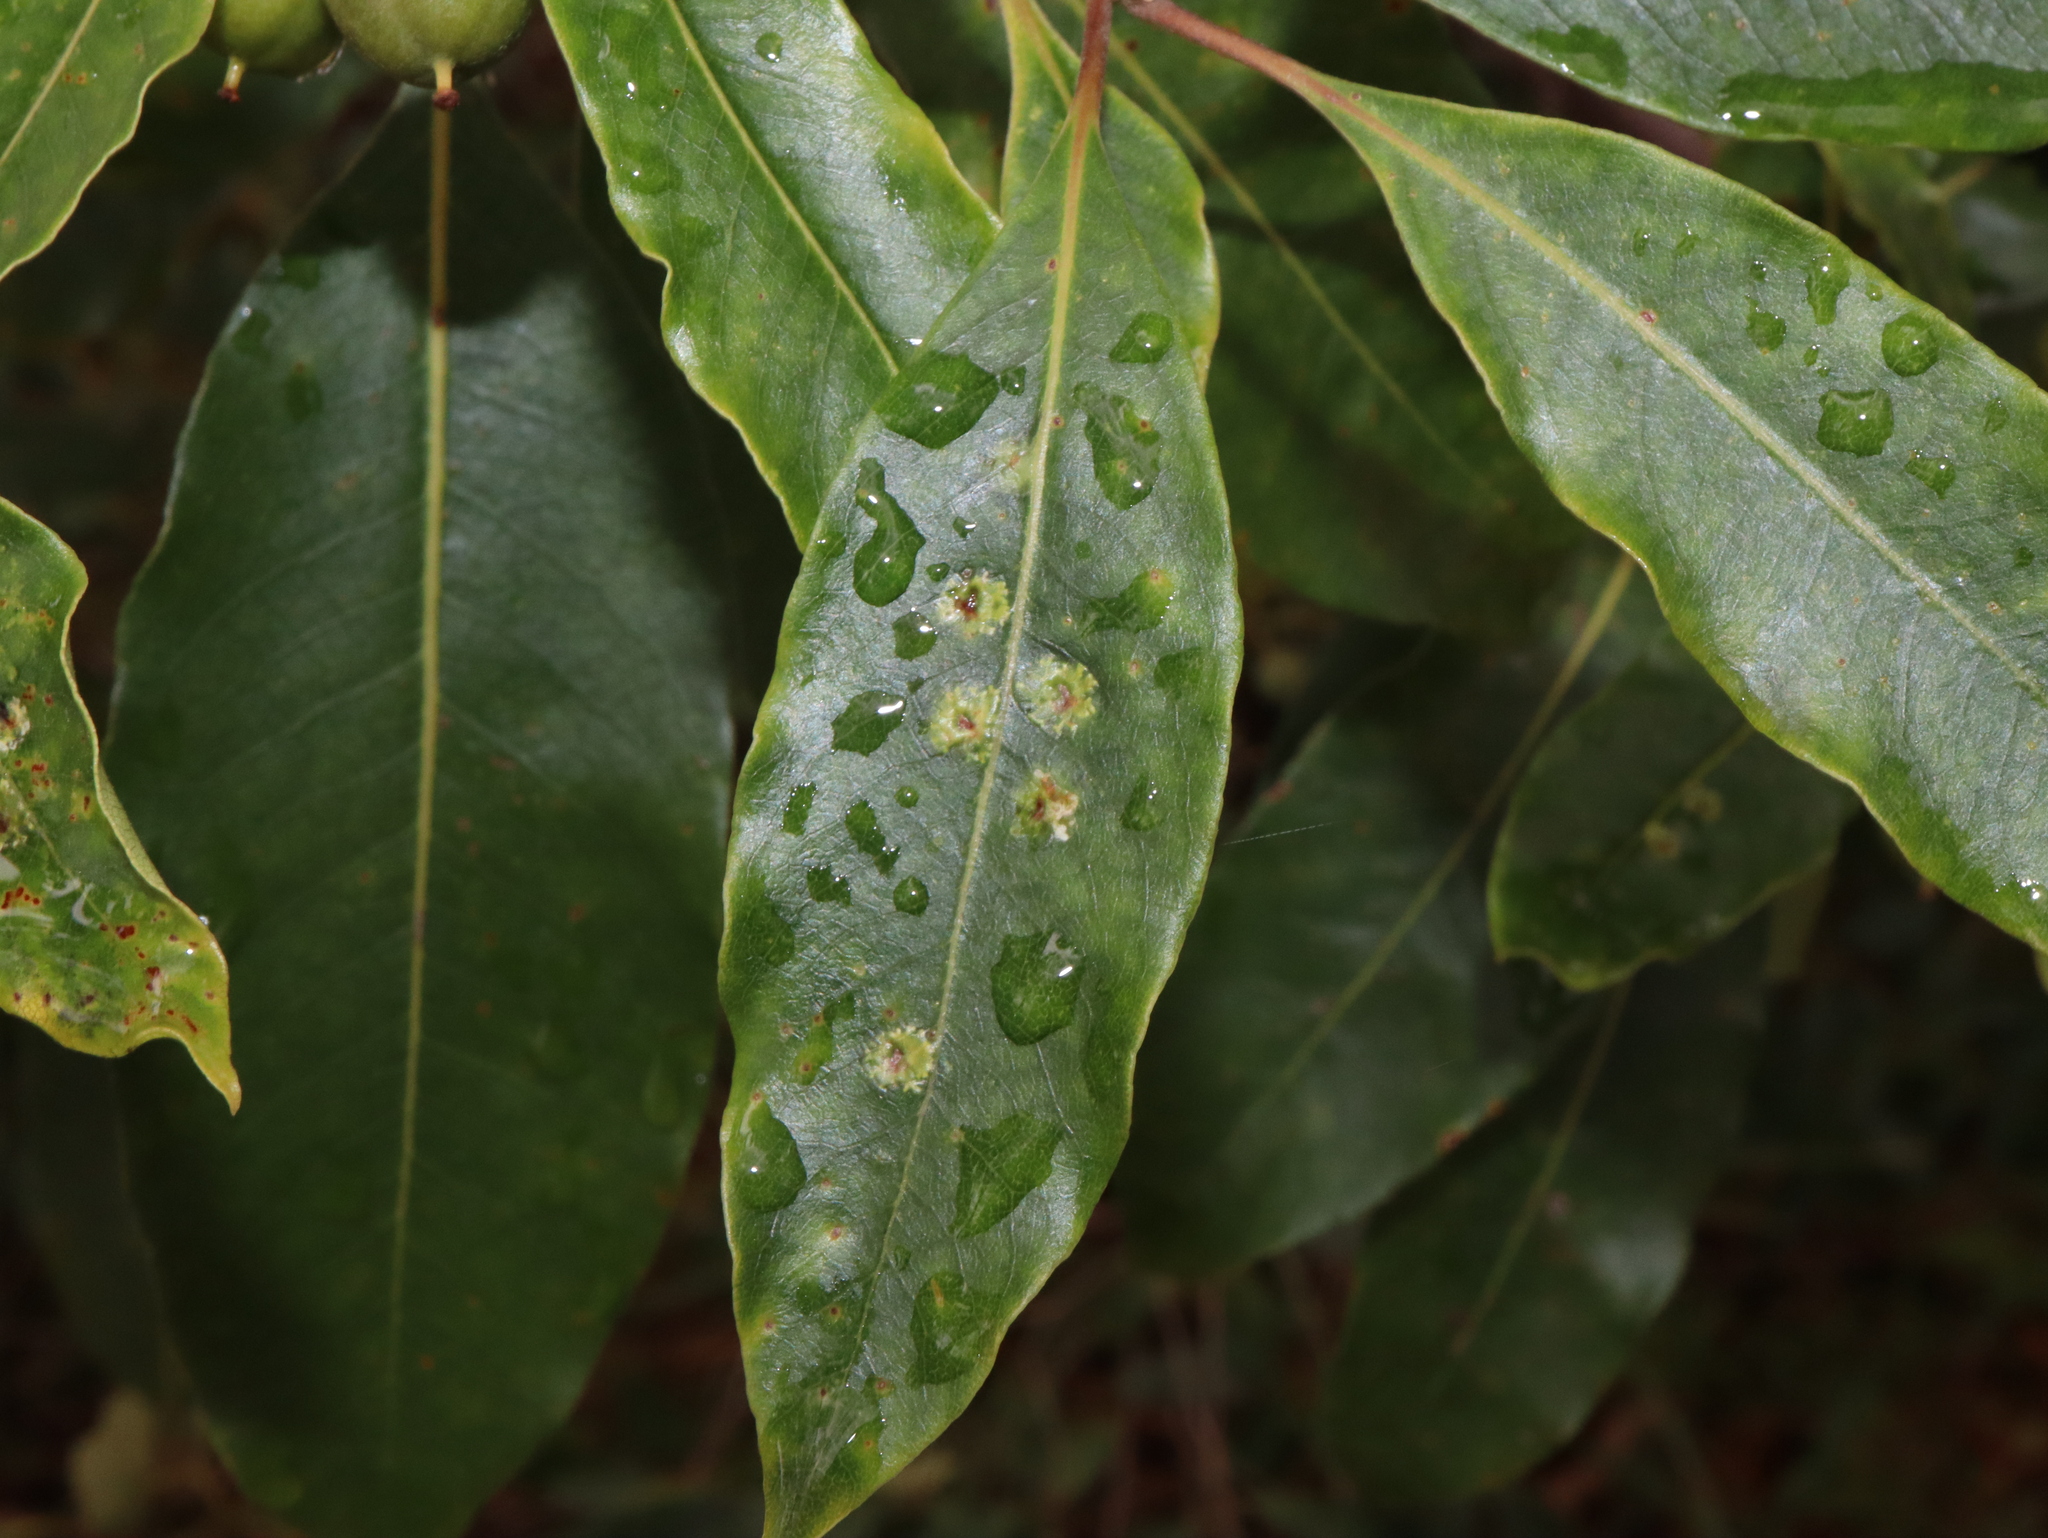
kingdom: Animalia
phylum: Arthropoda
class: Insecta
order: Diptera
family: Agromyzidae
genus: Phytoliriomyza
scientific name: Phytoliriomyza pittosporophylli
